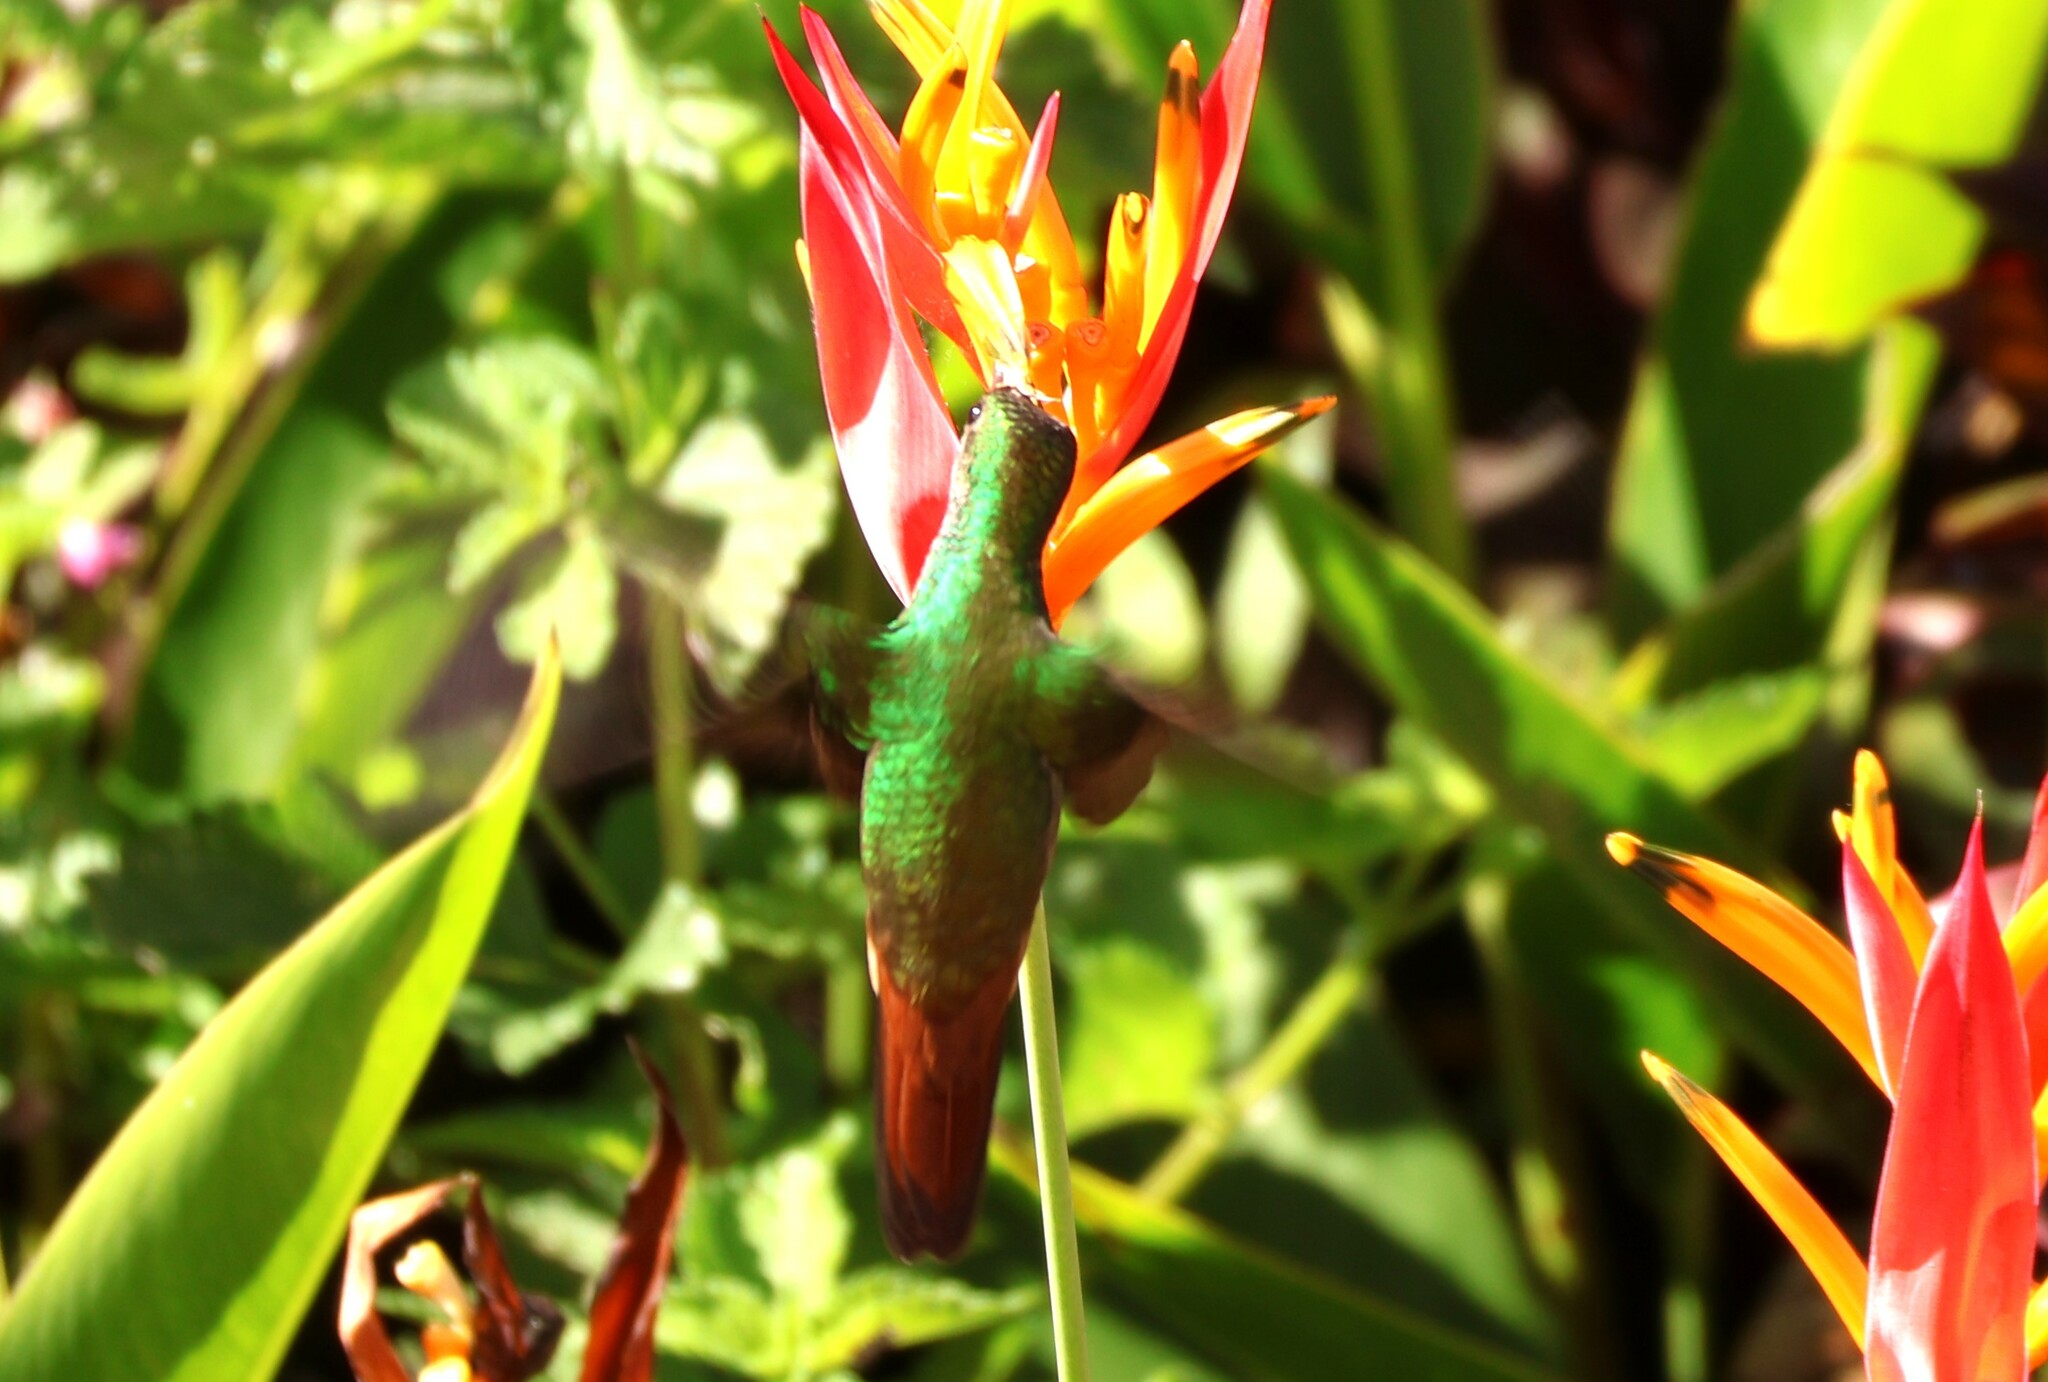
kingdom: Animalia
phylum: Chordata
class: Aves
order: Apodiformes
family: Trochilidae
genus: Amazilia
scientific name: Amazilia tzacatl
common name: Rufous-tailed hummingbird
